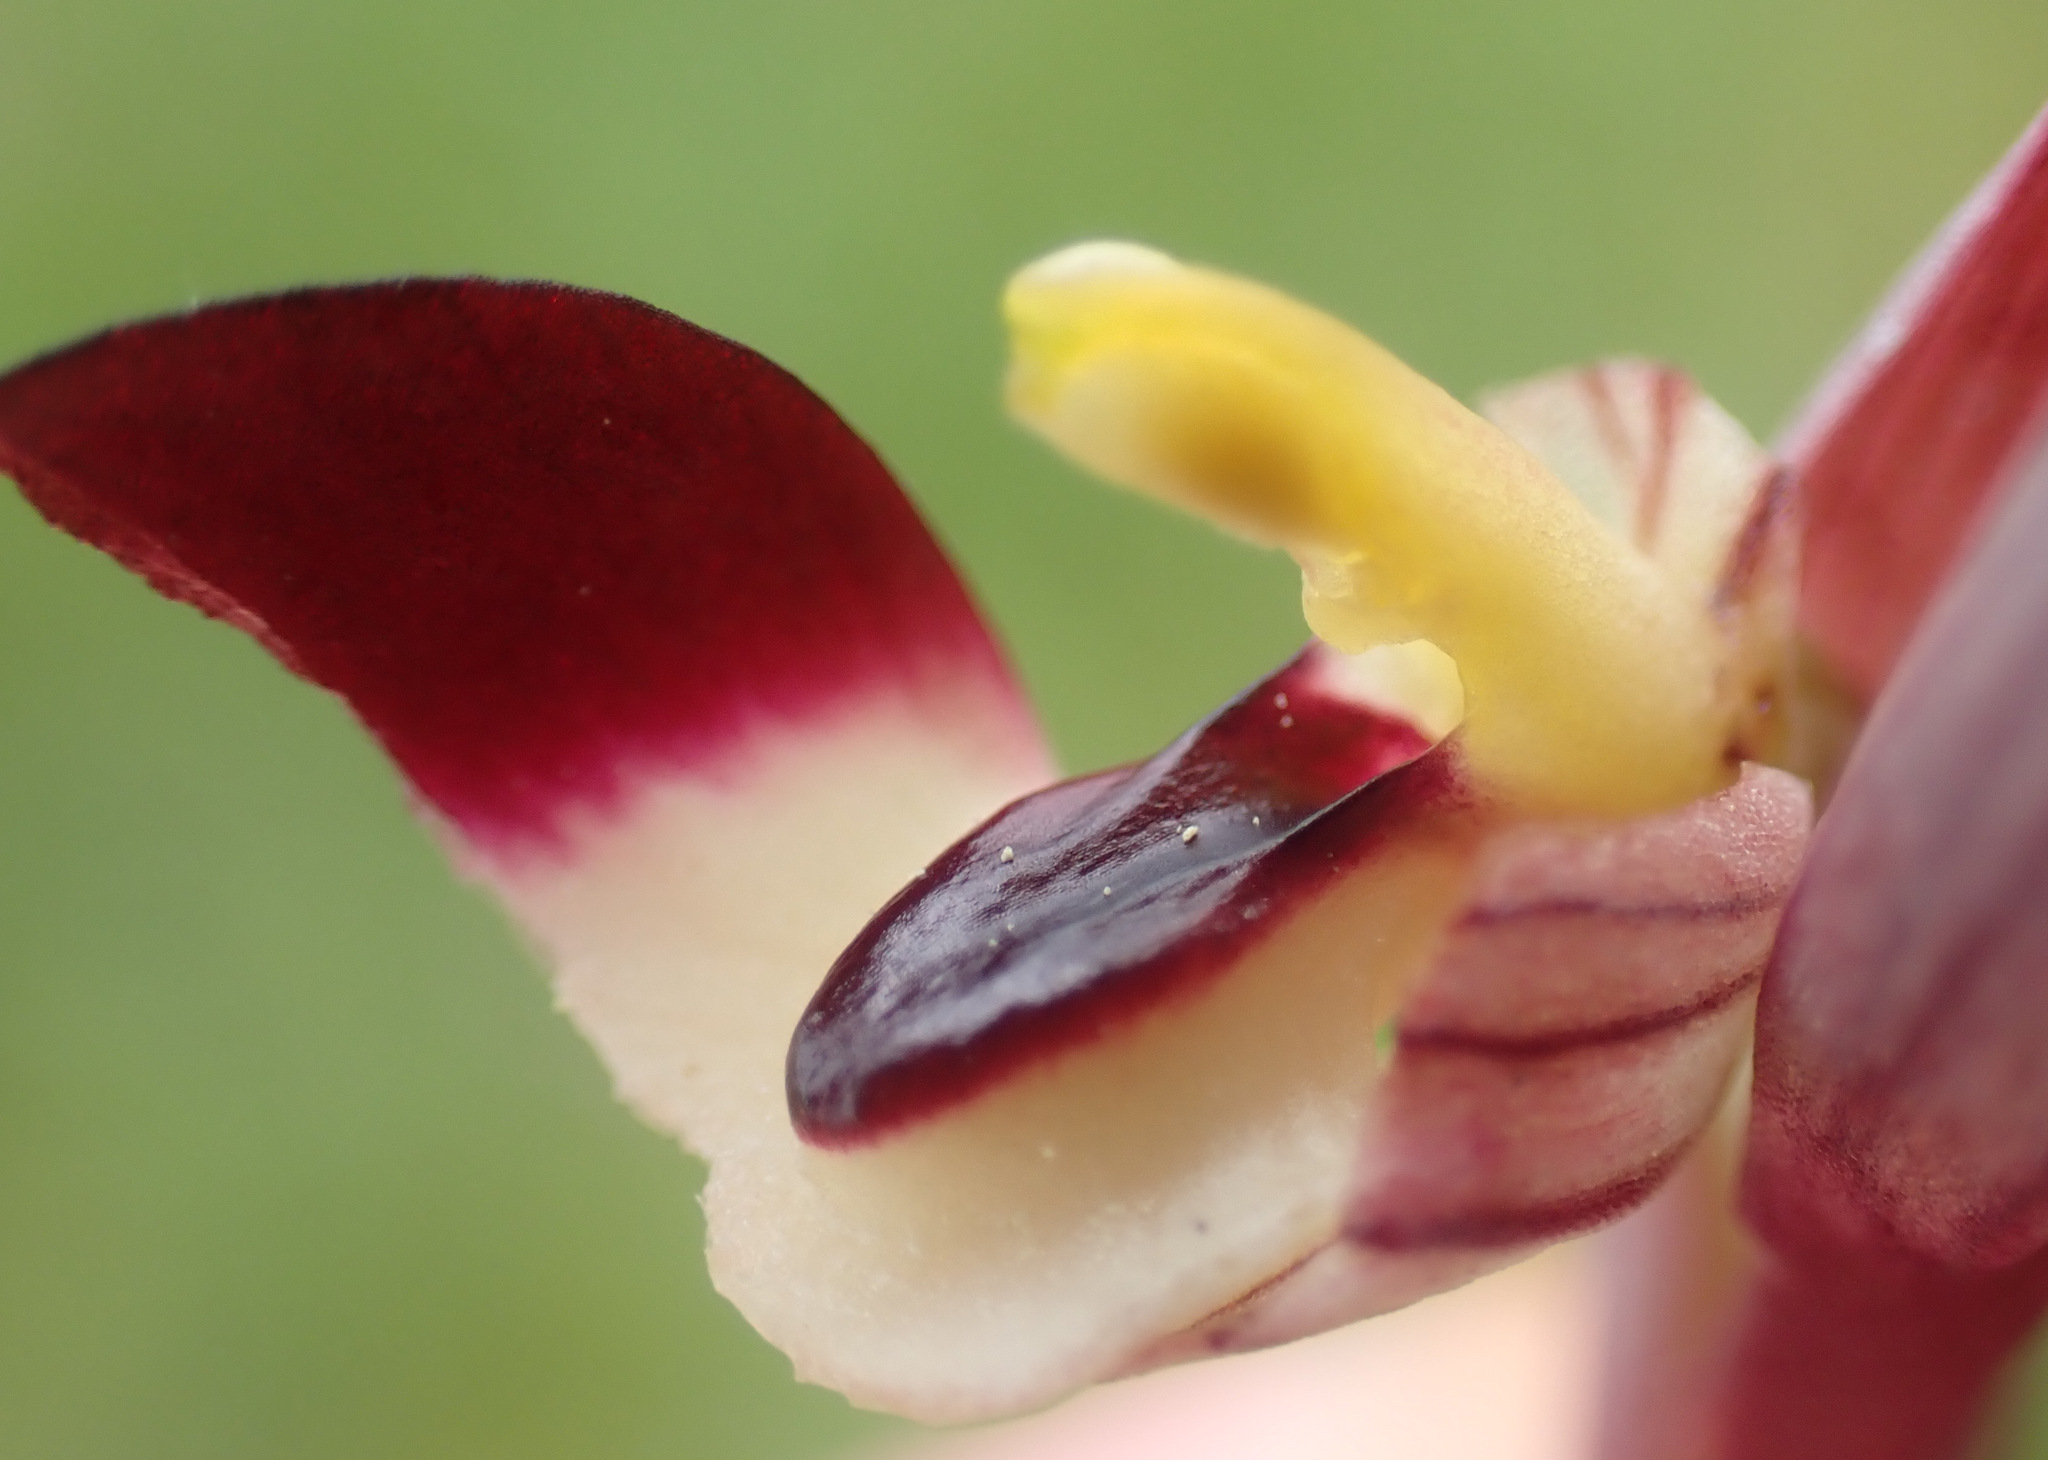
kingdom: Plantae
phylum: Tracheophyta
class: Liliopsida
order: Asparagales
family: Orchidaceae
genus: Serapias
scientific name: Serapias lingua
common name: Tongue-orchid
